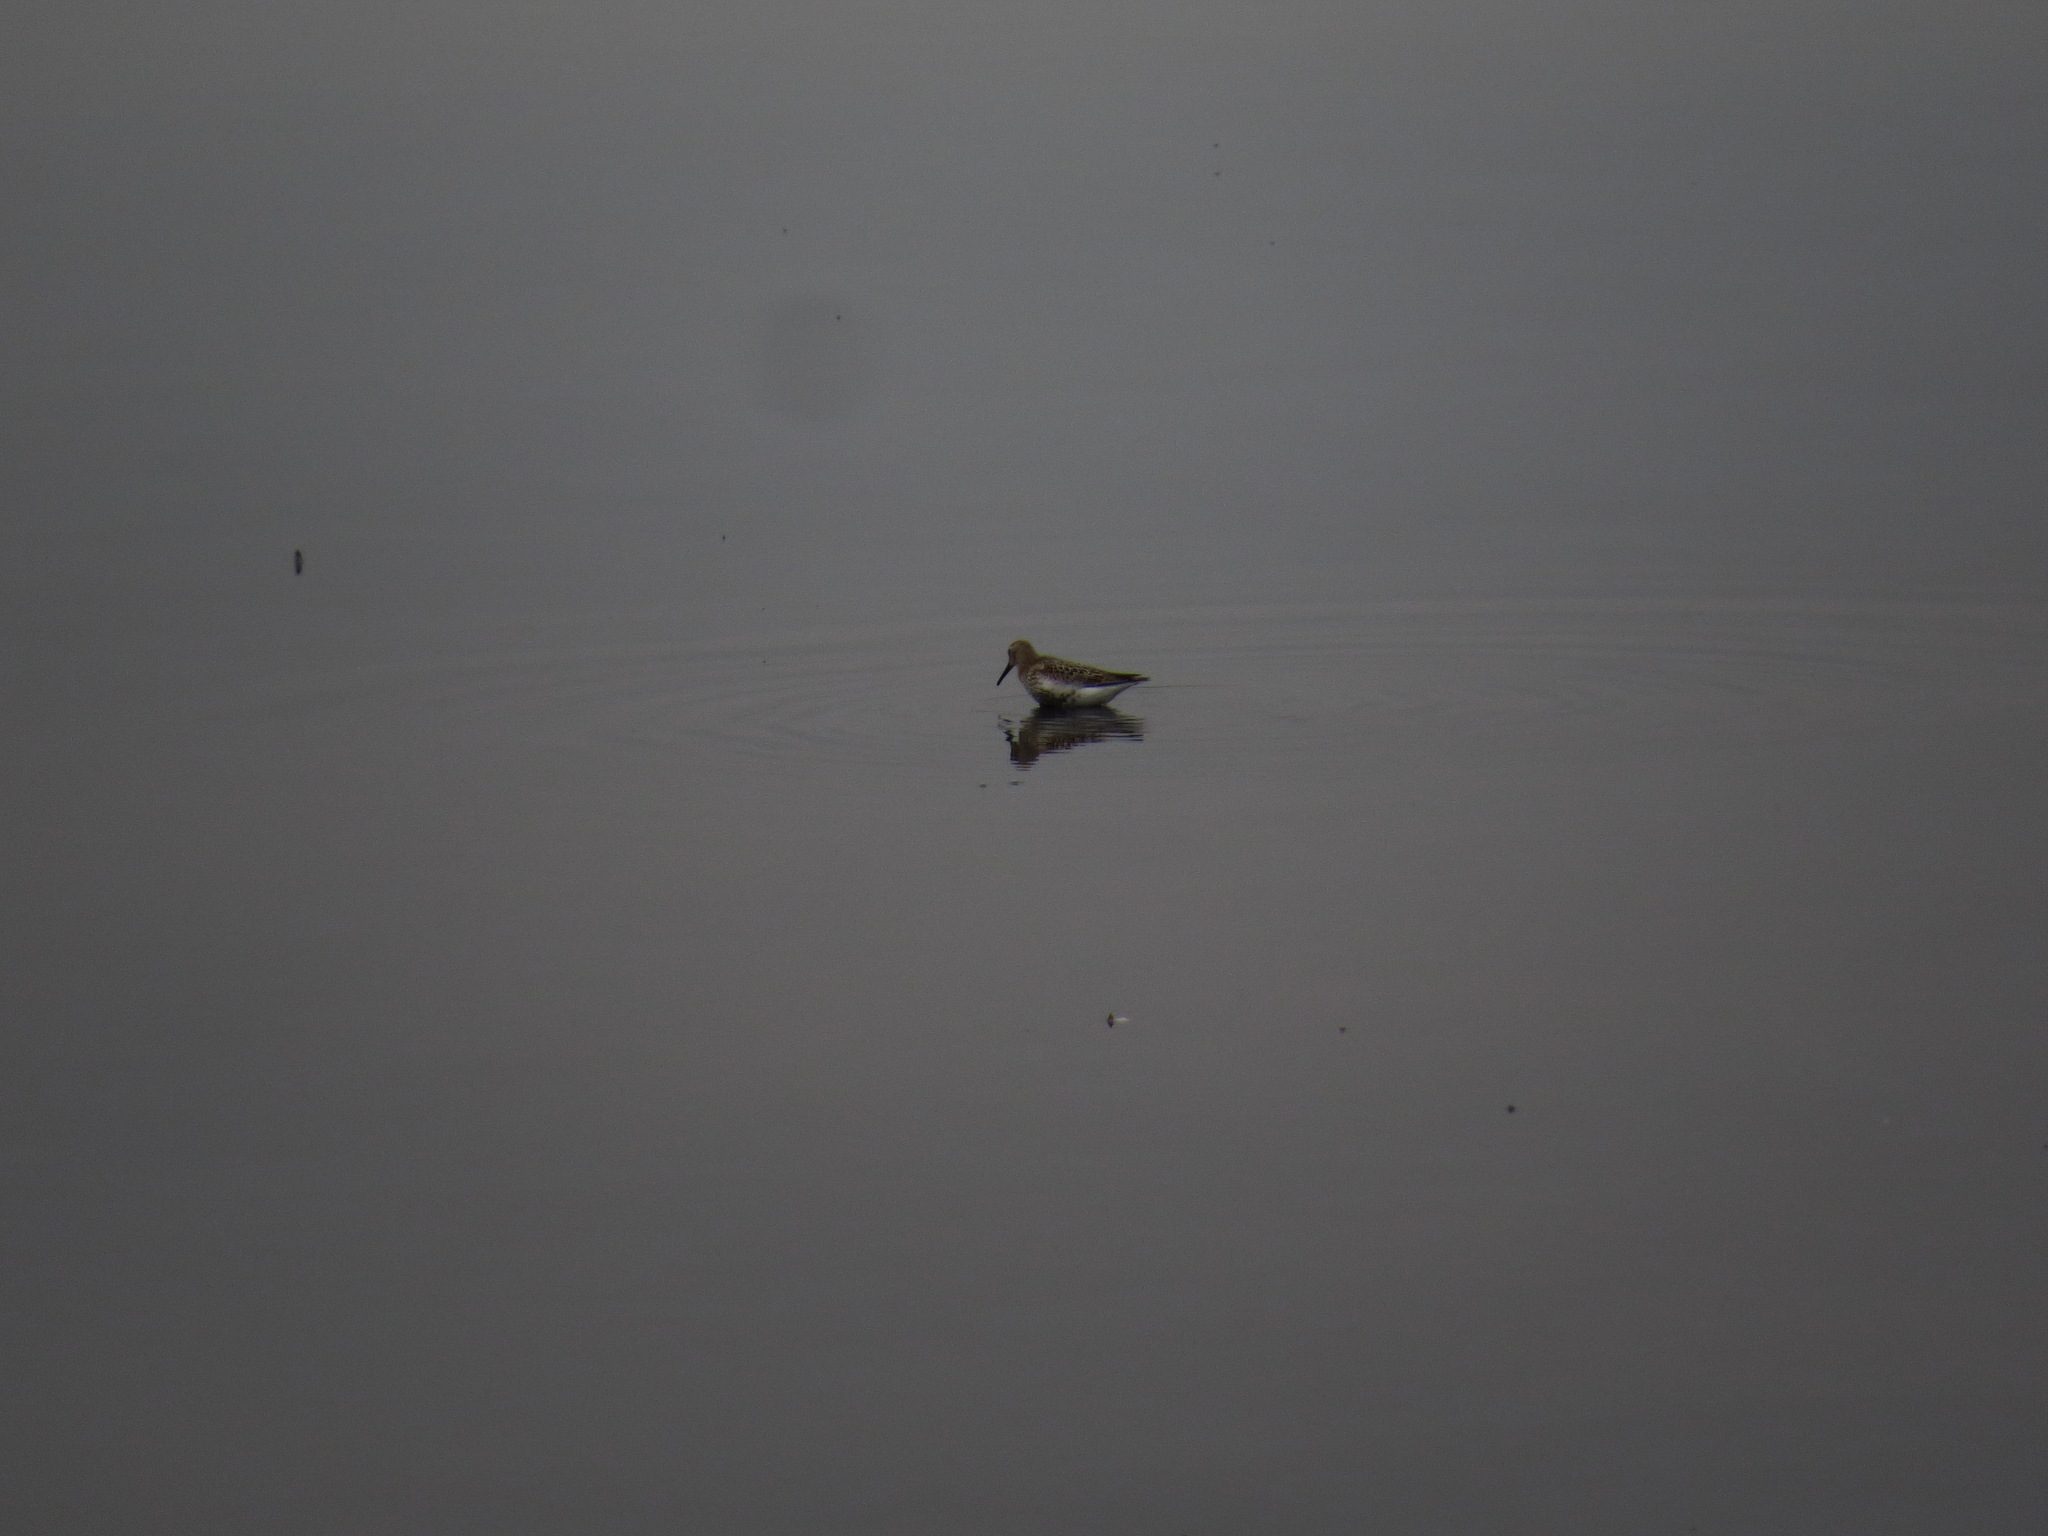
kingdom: Animalia
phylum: Chordata
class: Aves
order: Charadriiformes
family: Scolopacidae
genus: Calidris
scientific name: Calidris alpina
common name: Dunlin
